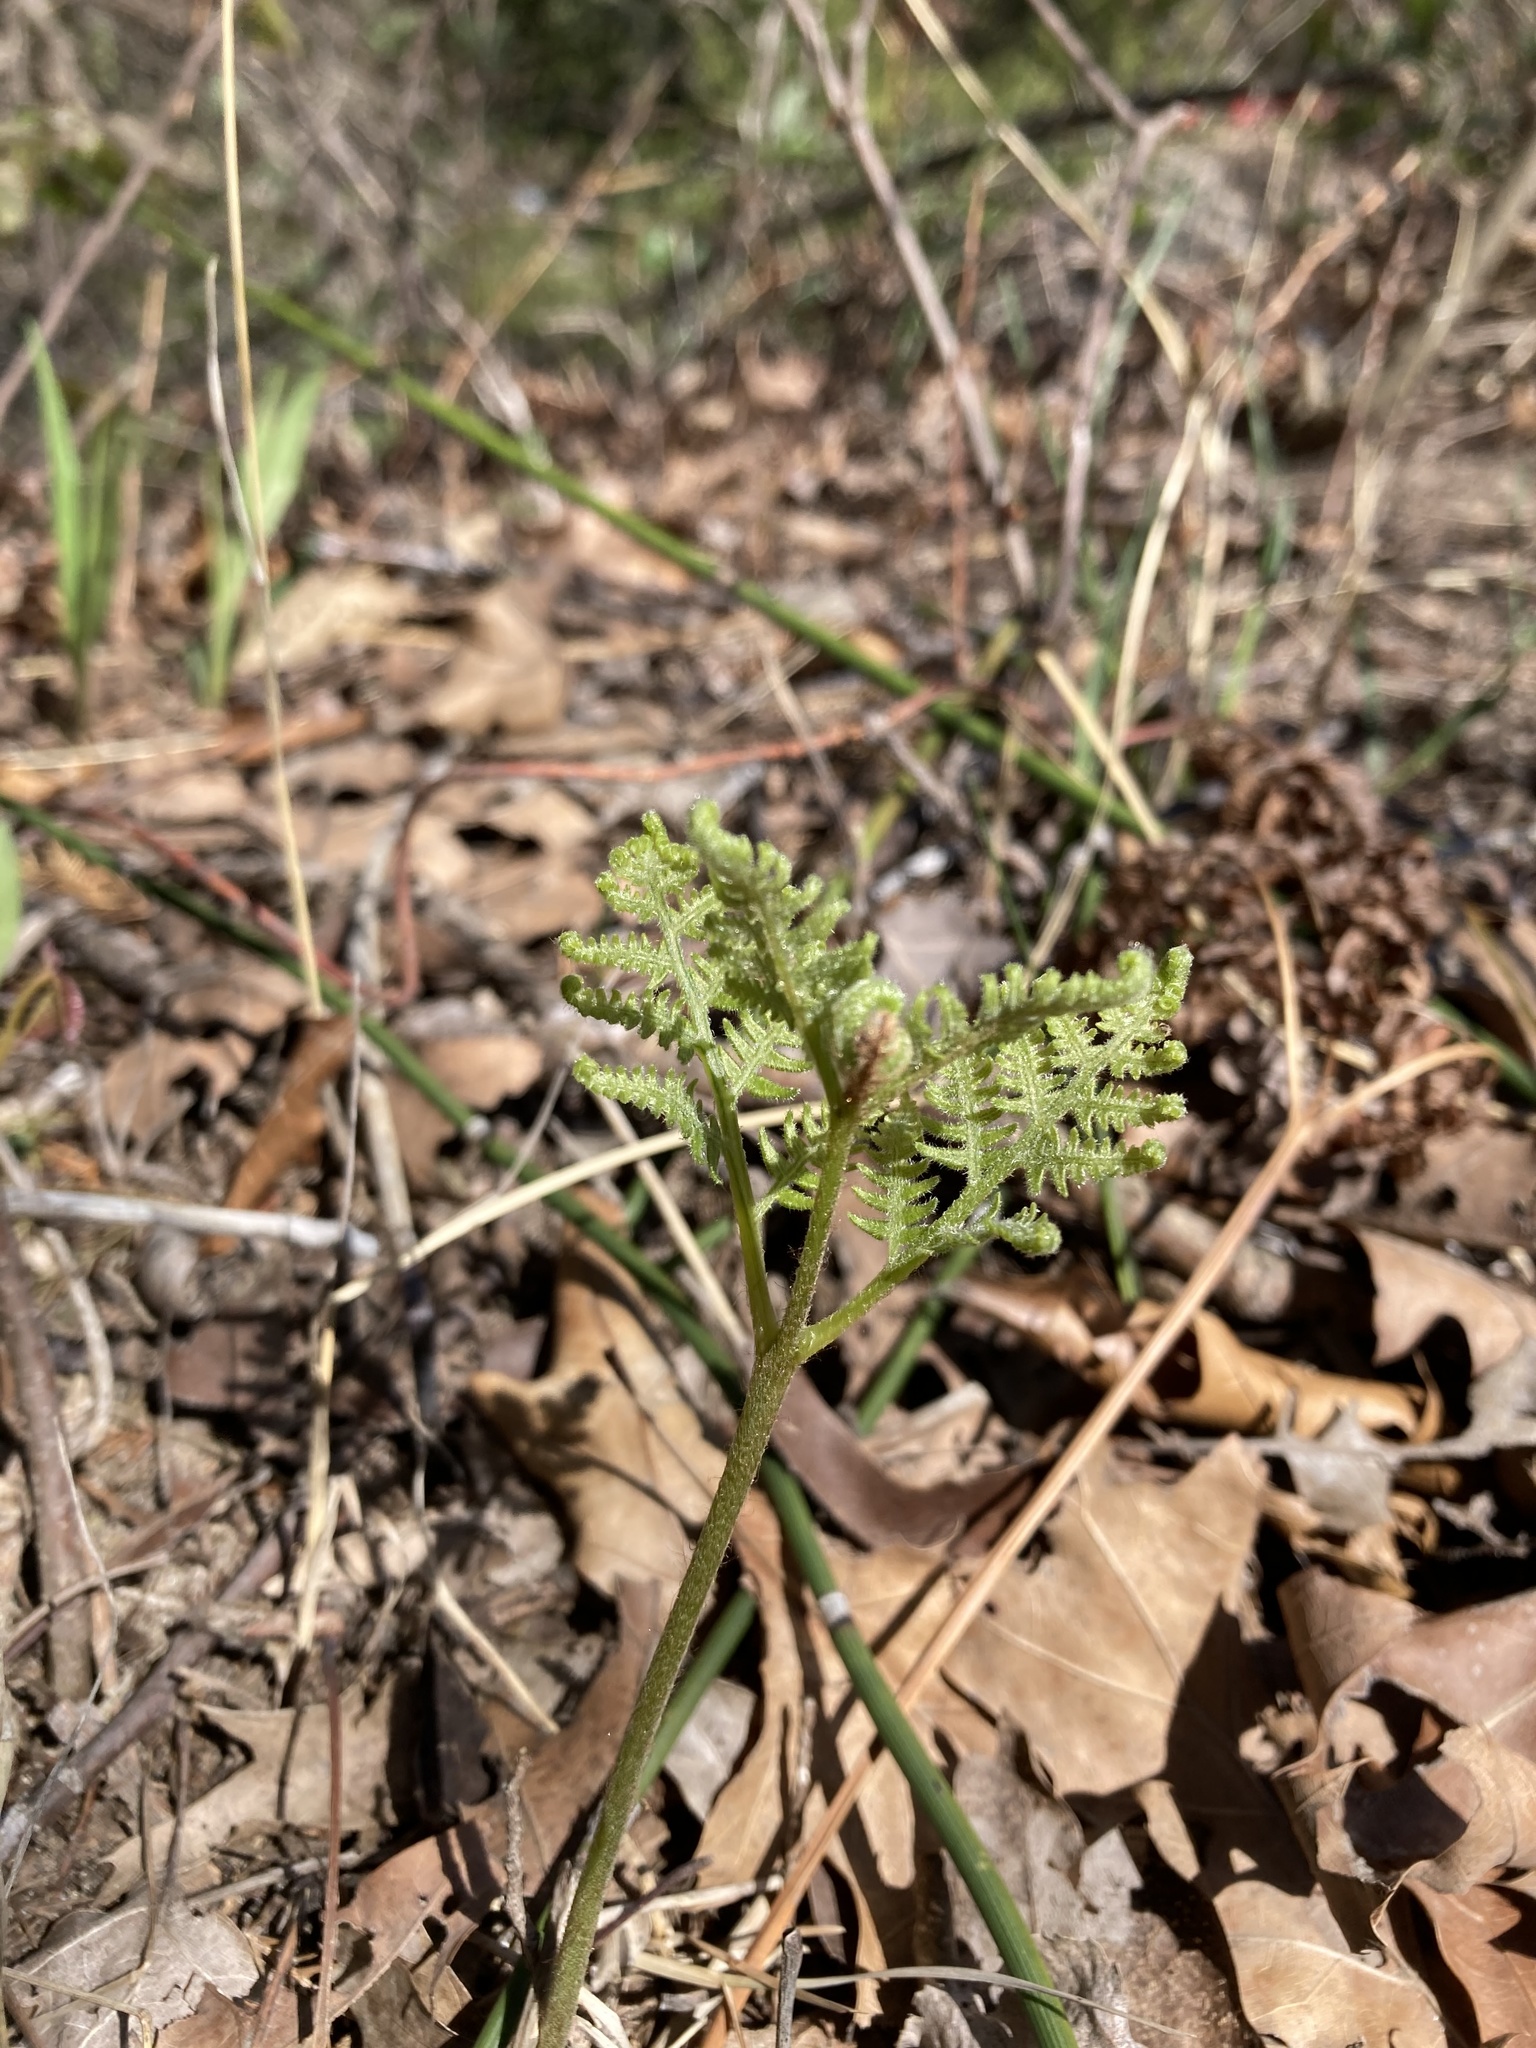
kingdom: Plantae
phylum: Tracheophyta
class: Polypodiopsida
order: Polypodiales
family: Dennstaedtiaceae
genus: Pteridium
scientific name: Pteridium aquilinum
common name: Bracken
